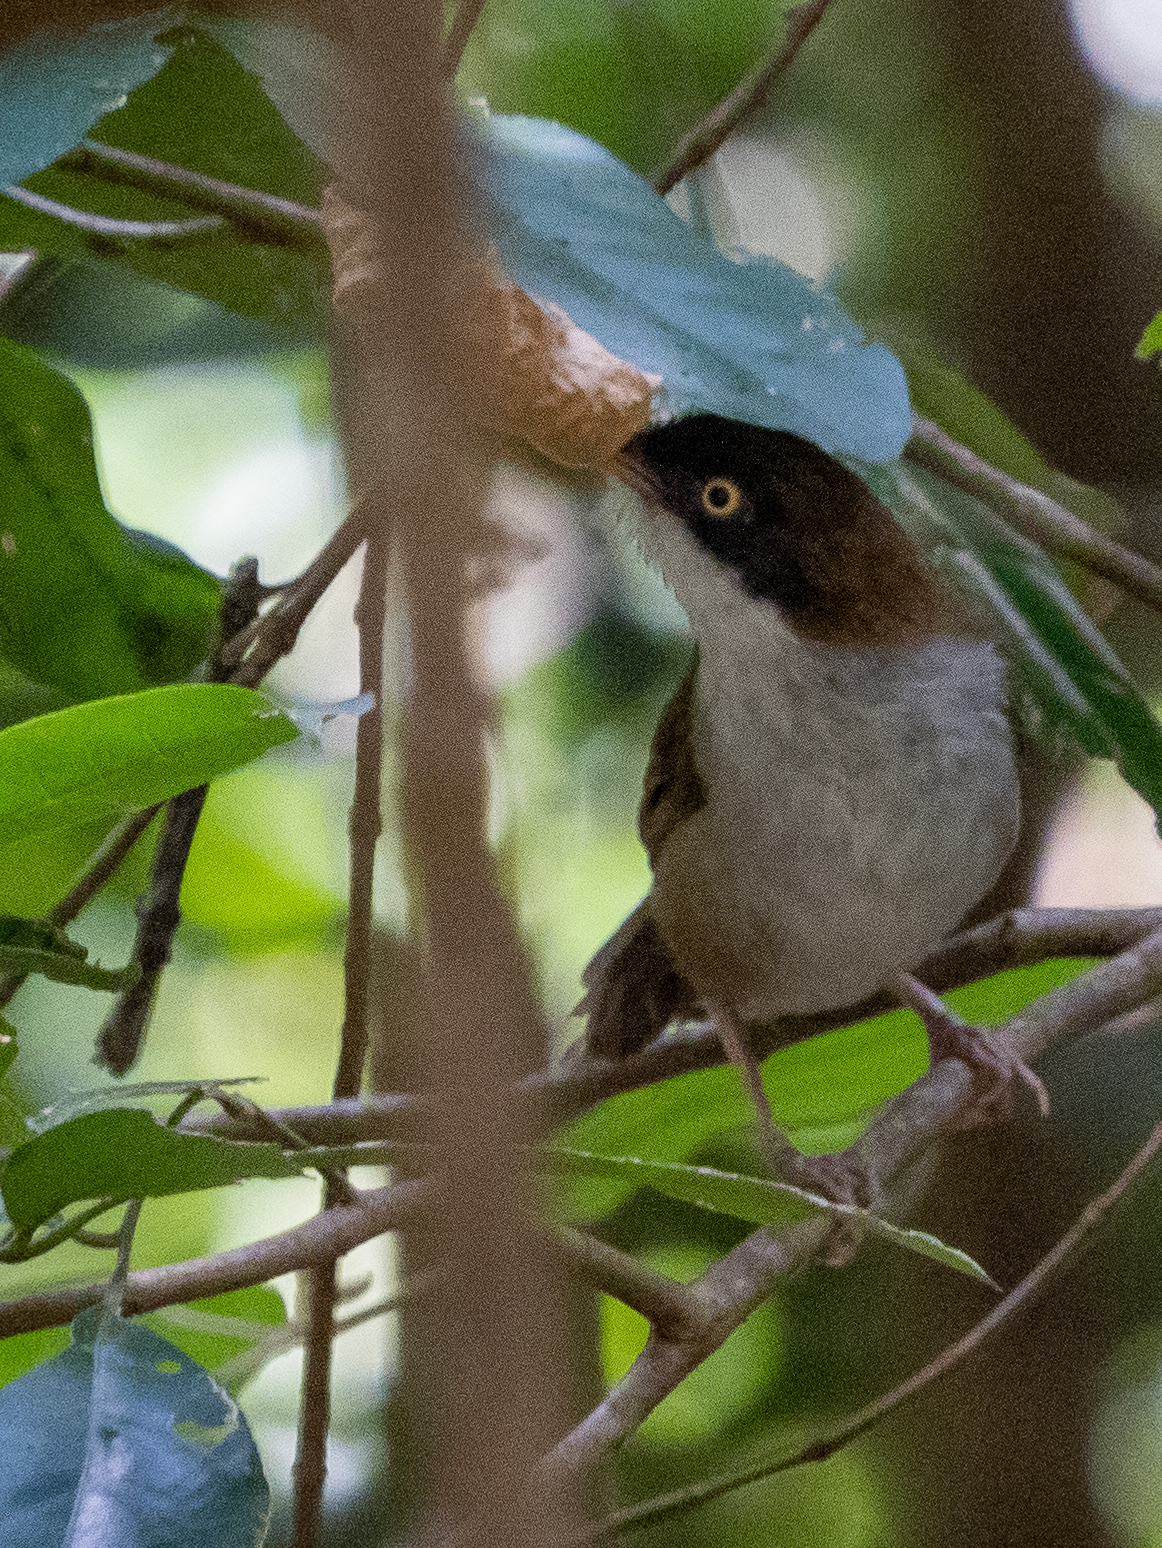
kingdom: Animalia
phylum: Chordata
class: Aves
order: Passeriformes
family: Timaliidae
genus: Rhopocichla
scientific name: Rhopocichla atriceps
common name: Dark-fronted babbler
